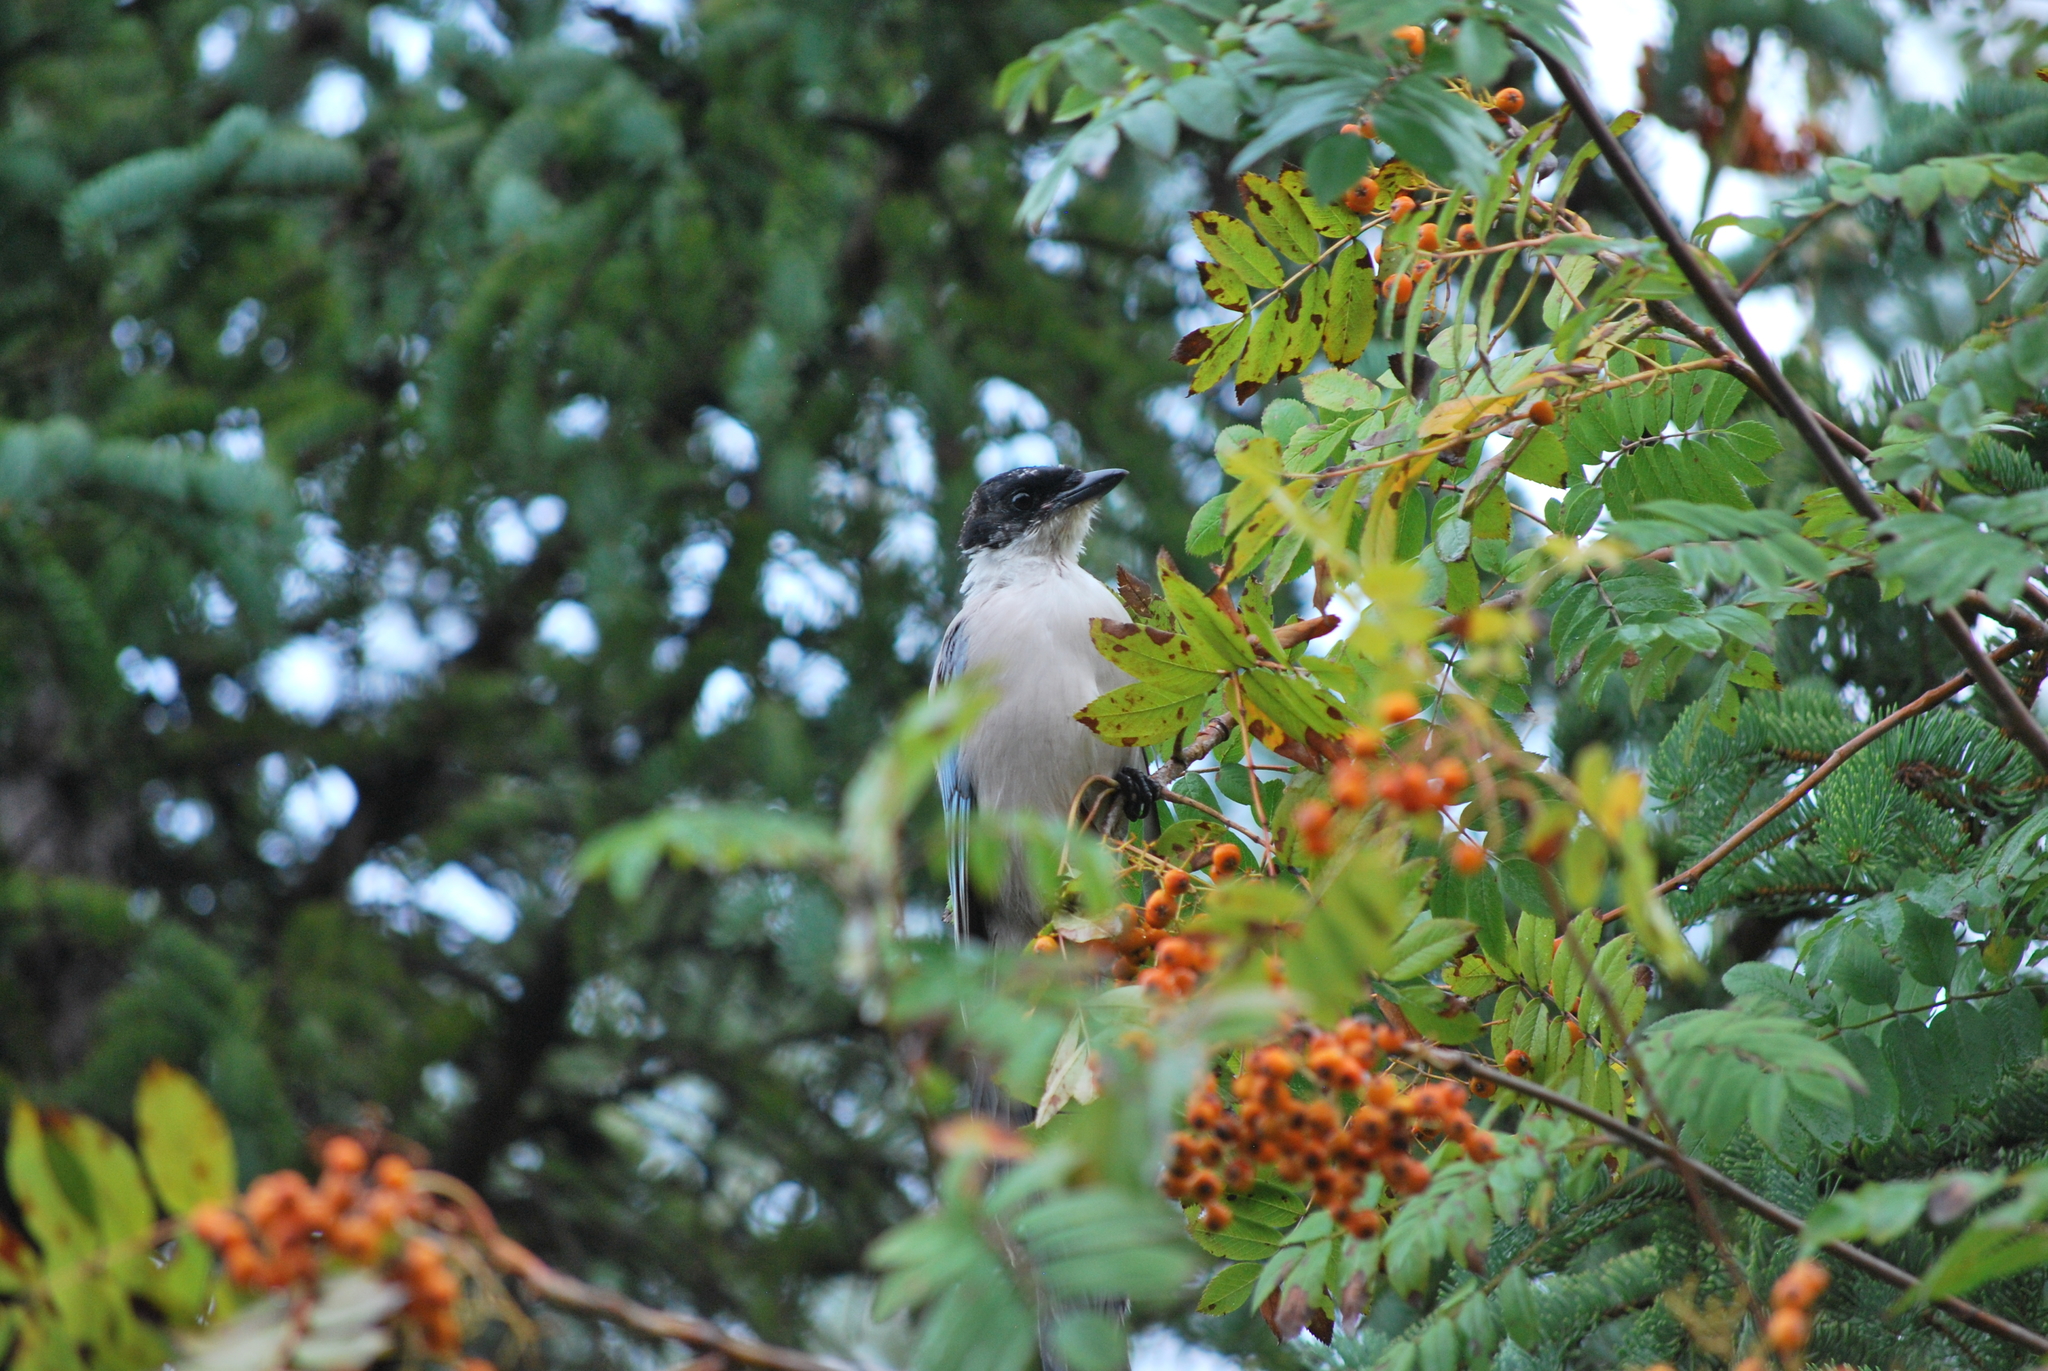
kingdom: Animalia
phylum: Chordata
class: Aves
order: Passeriformes
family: Corvidae
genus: Cyanopica
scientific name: Cyanopica cyanus
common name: Azure-winged magpie
